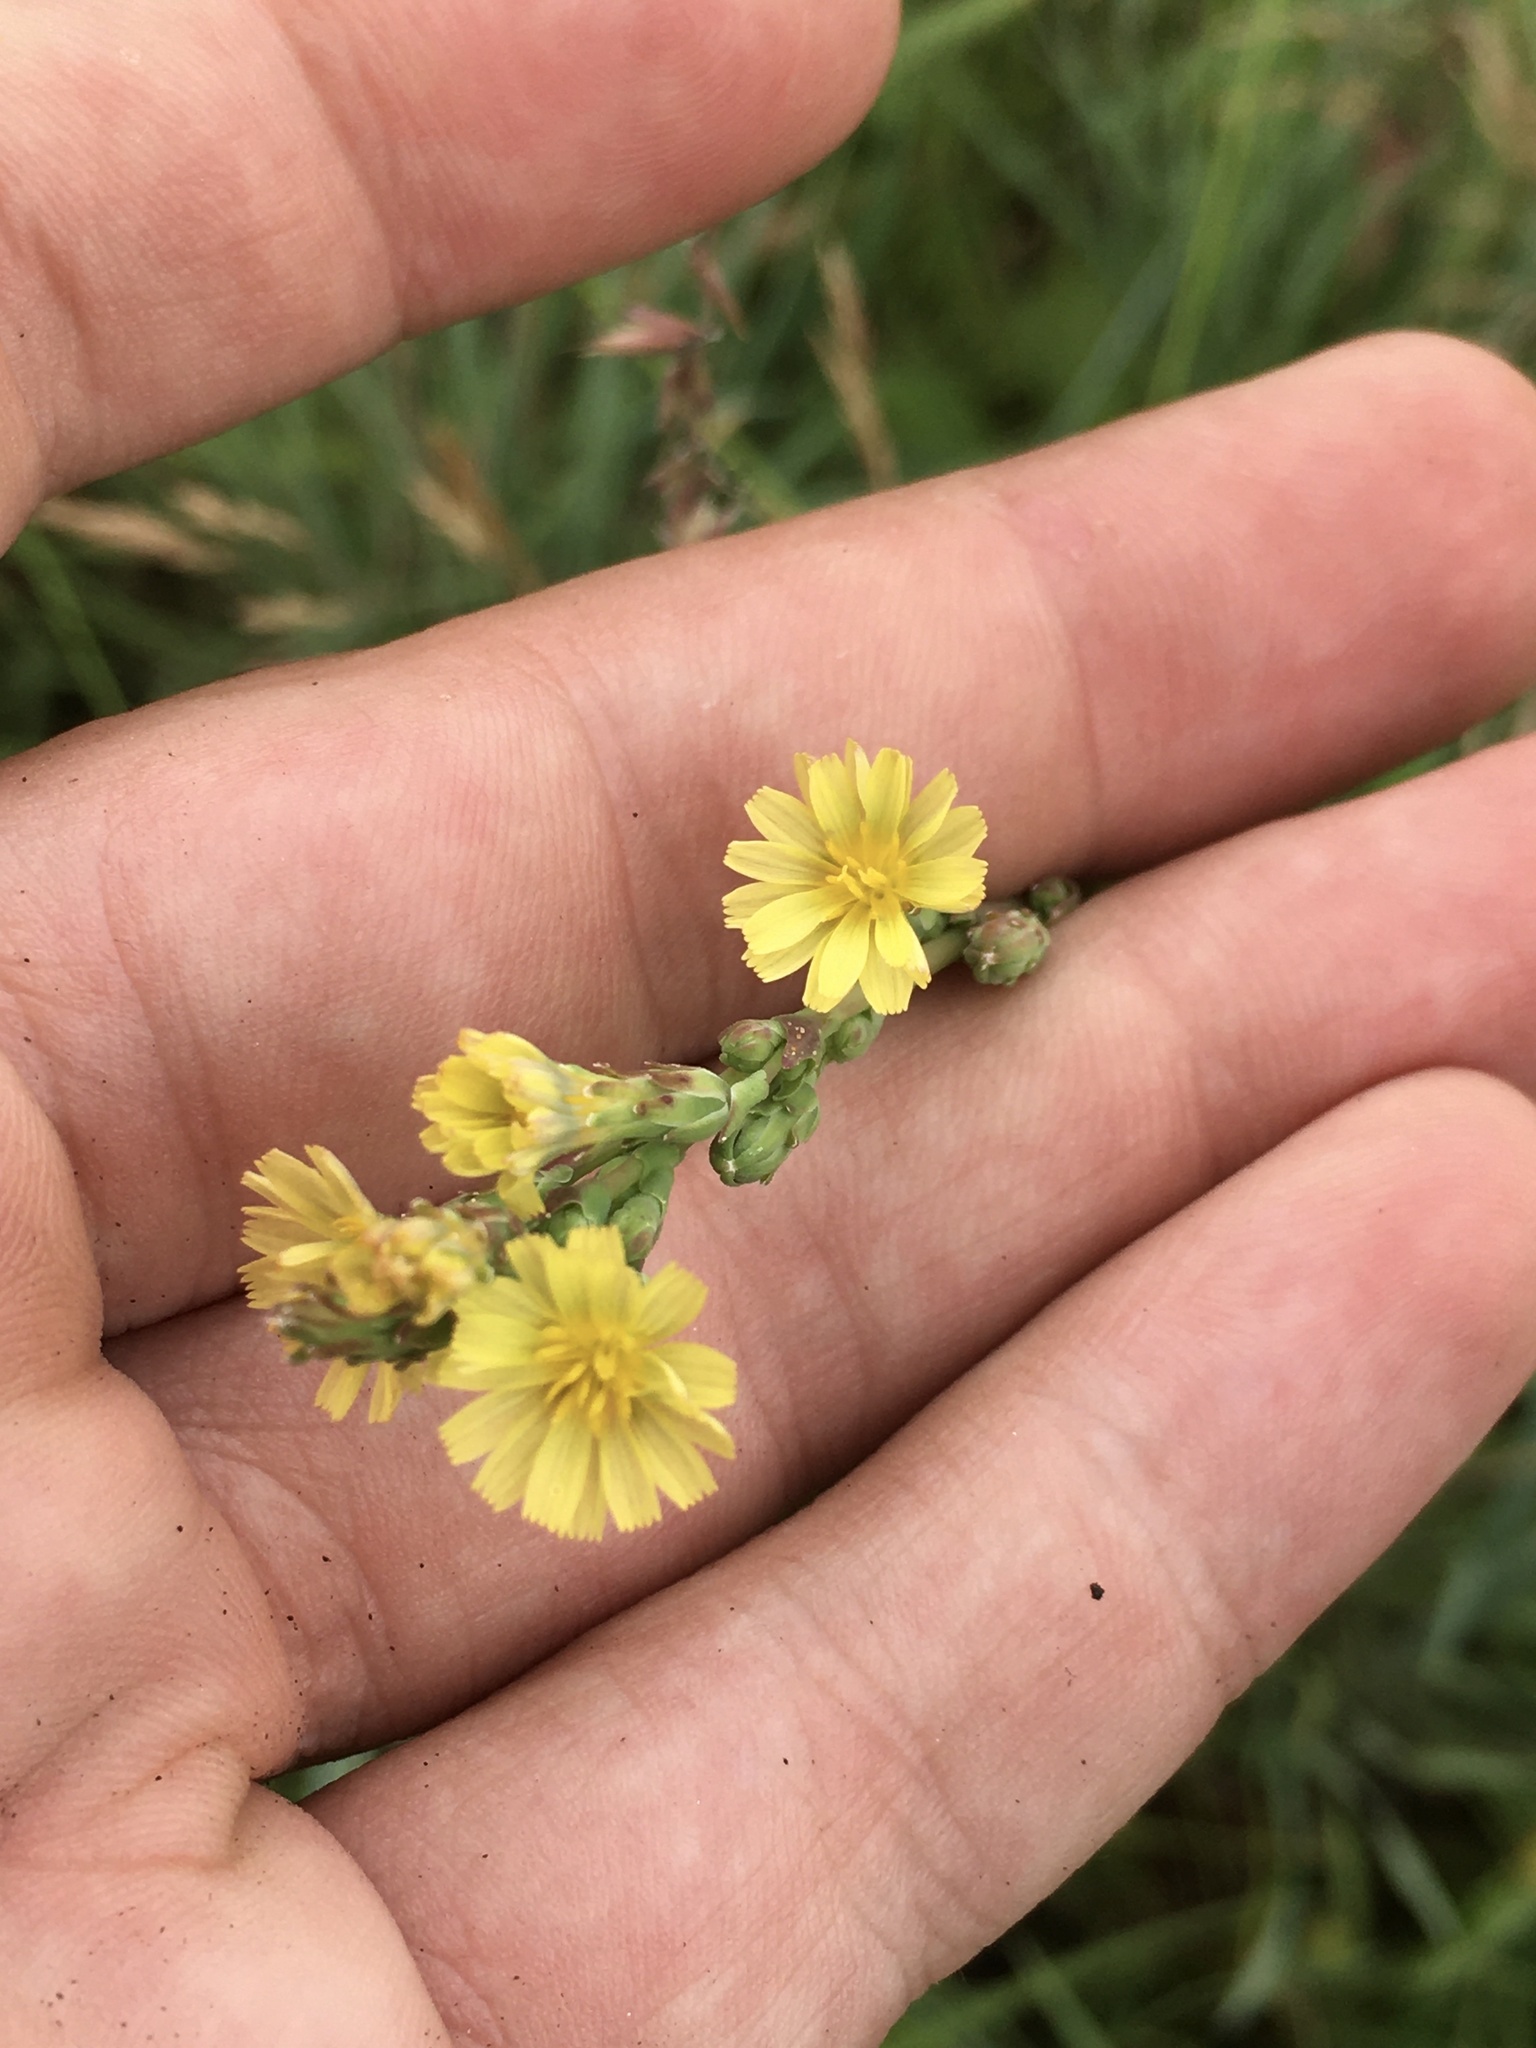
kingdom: Plantae
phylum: Tracheophyta
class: Magnoliopsida
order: Asterales
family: Asteraceae
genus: Lactuca
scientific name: Lactuca serriola
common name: Prickly lettuce
